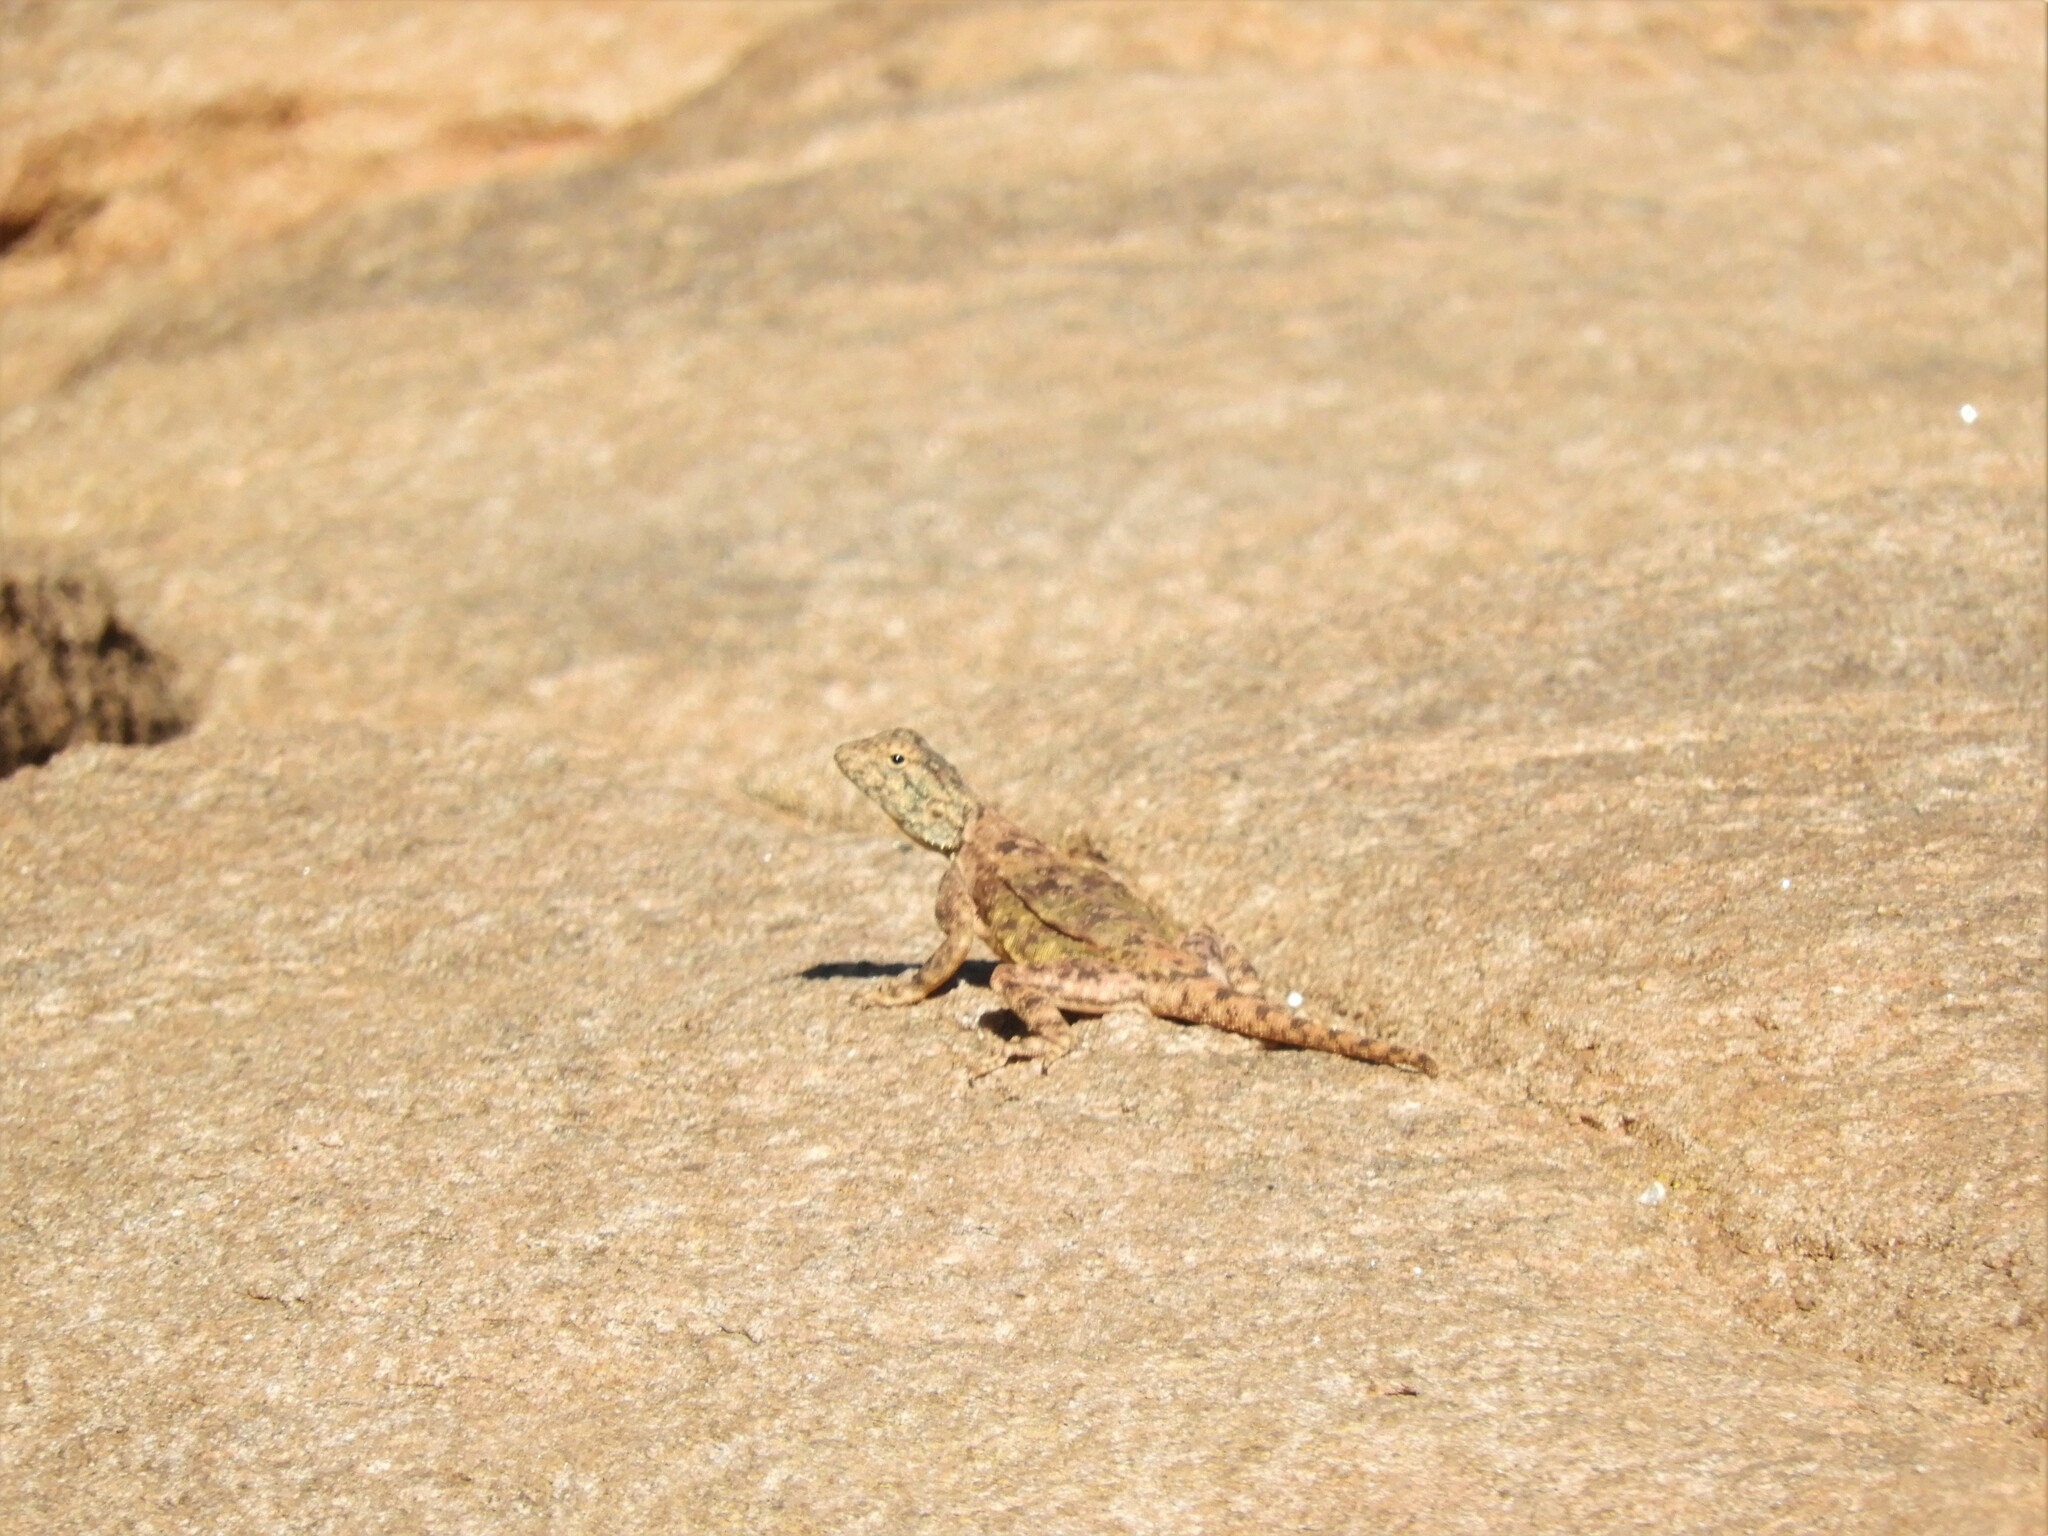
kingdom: Animalia
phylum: Chordata
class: Squamata
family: Agamidae
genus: Agama
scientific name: Agama atra
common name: Southern african rock agama
